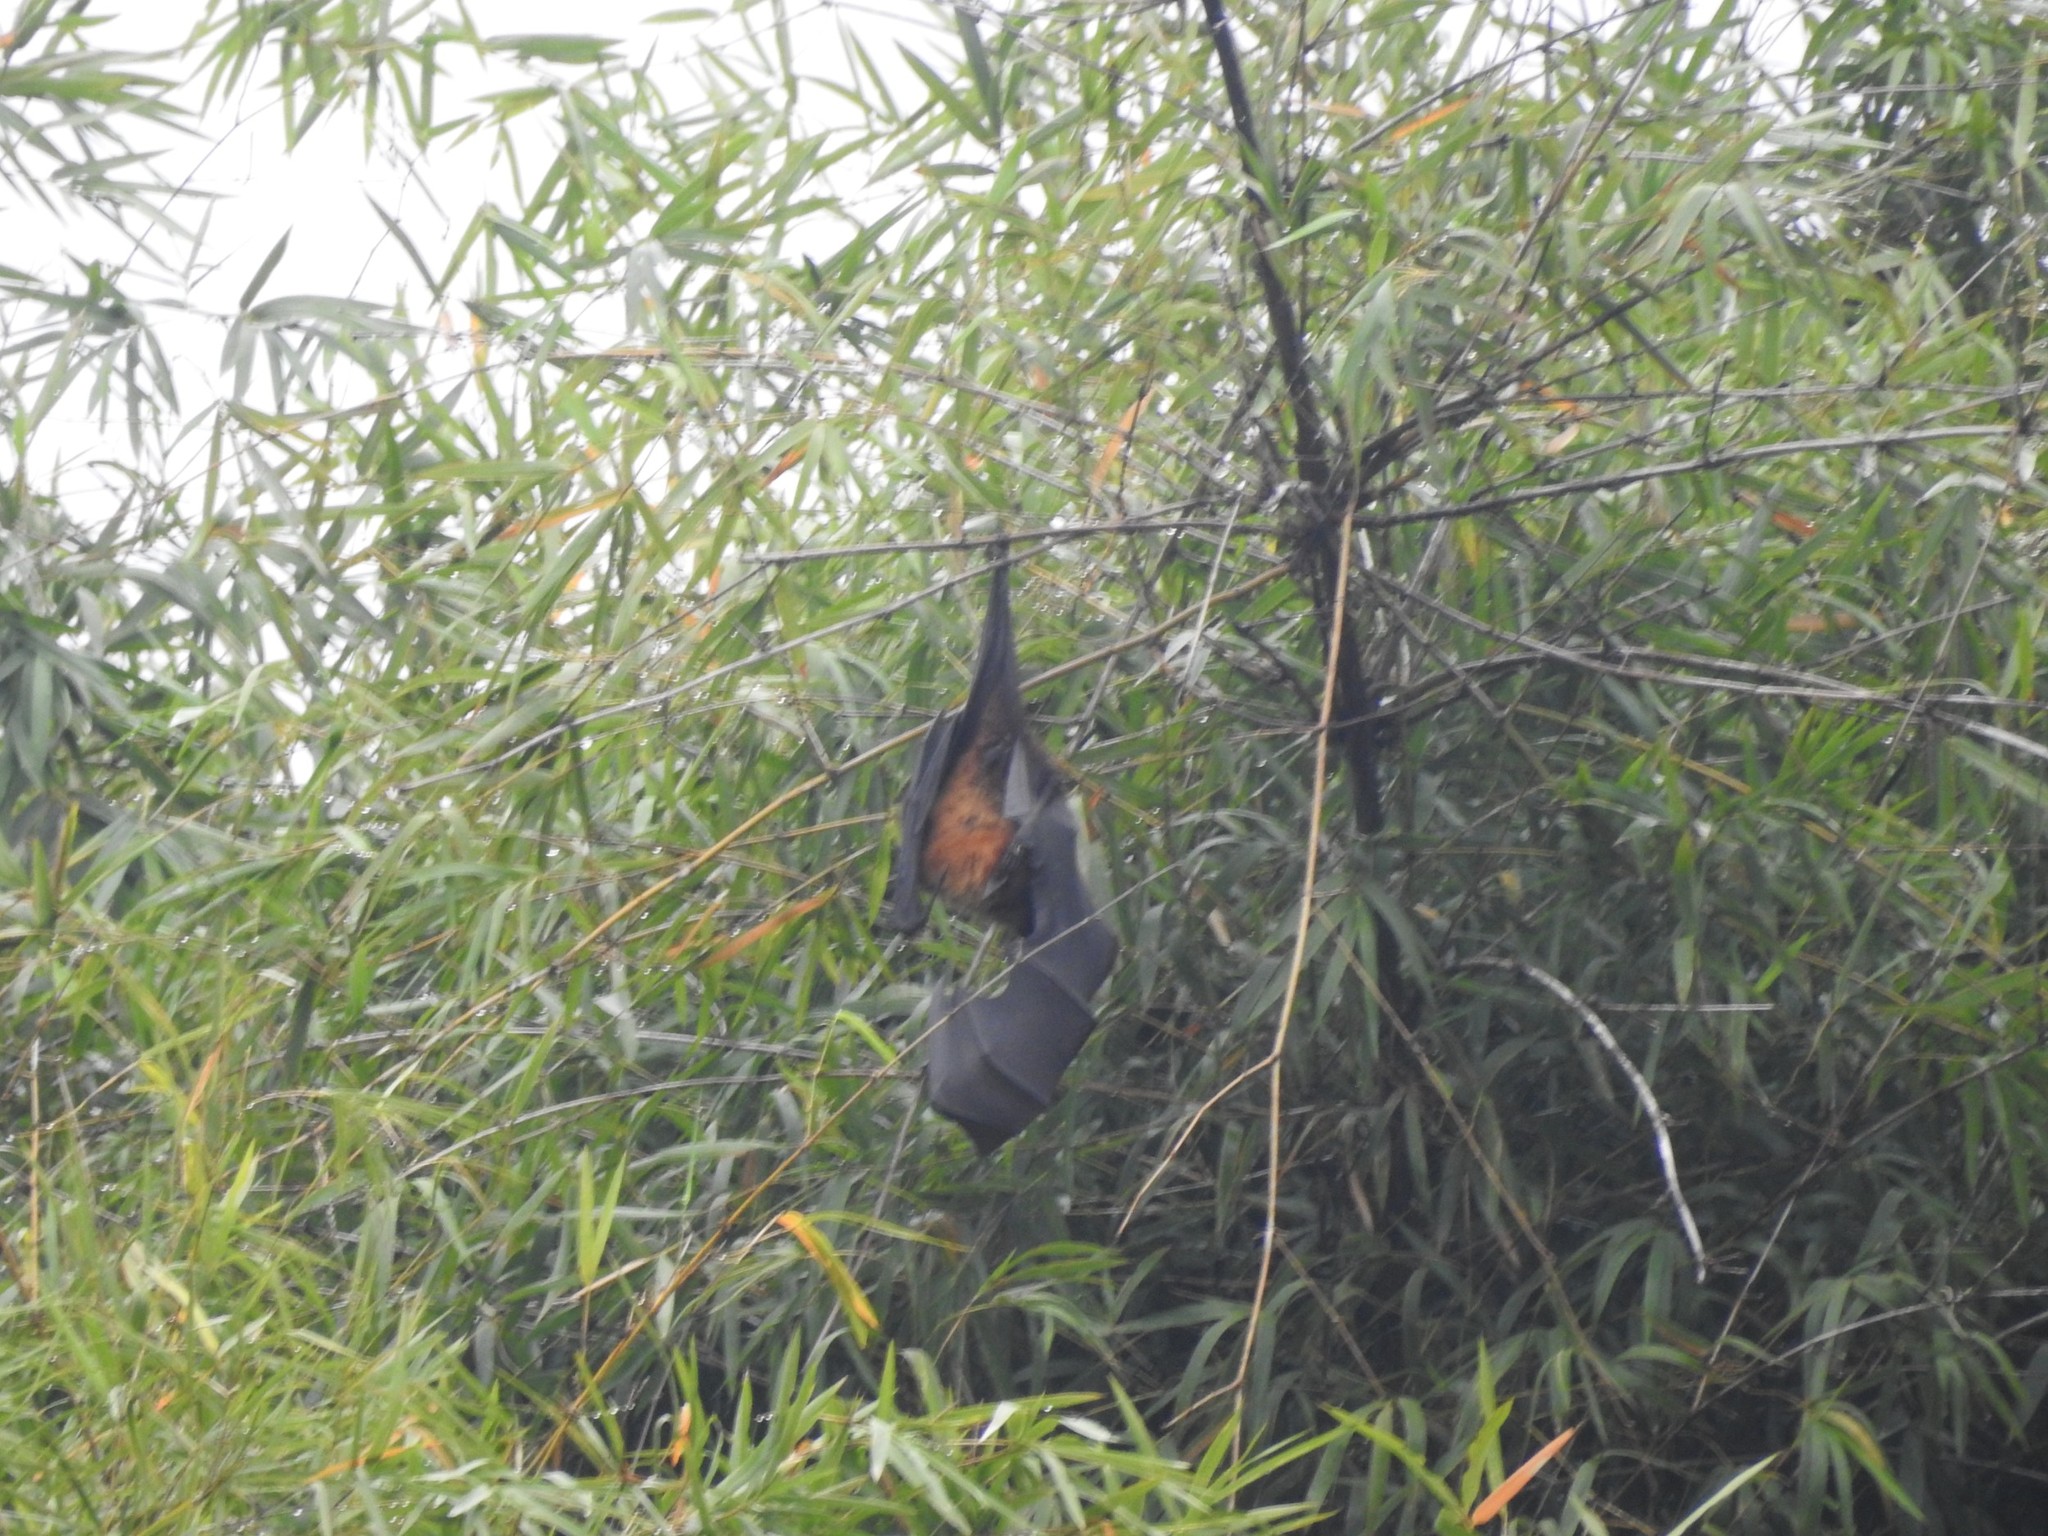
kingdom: Animalia
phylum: Chordata
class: Mammalia
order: Chiroptera
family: Pteropodidae
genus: Pteropus
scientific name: Pteropus vampyrus
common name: Large flying fox
